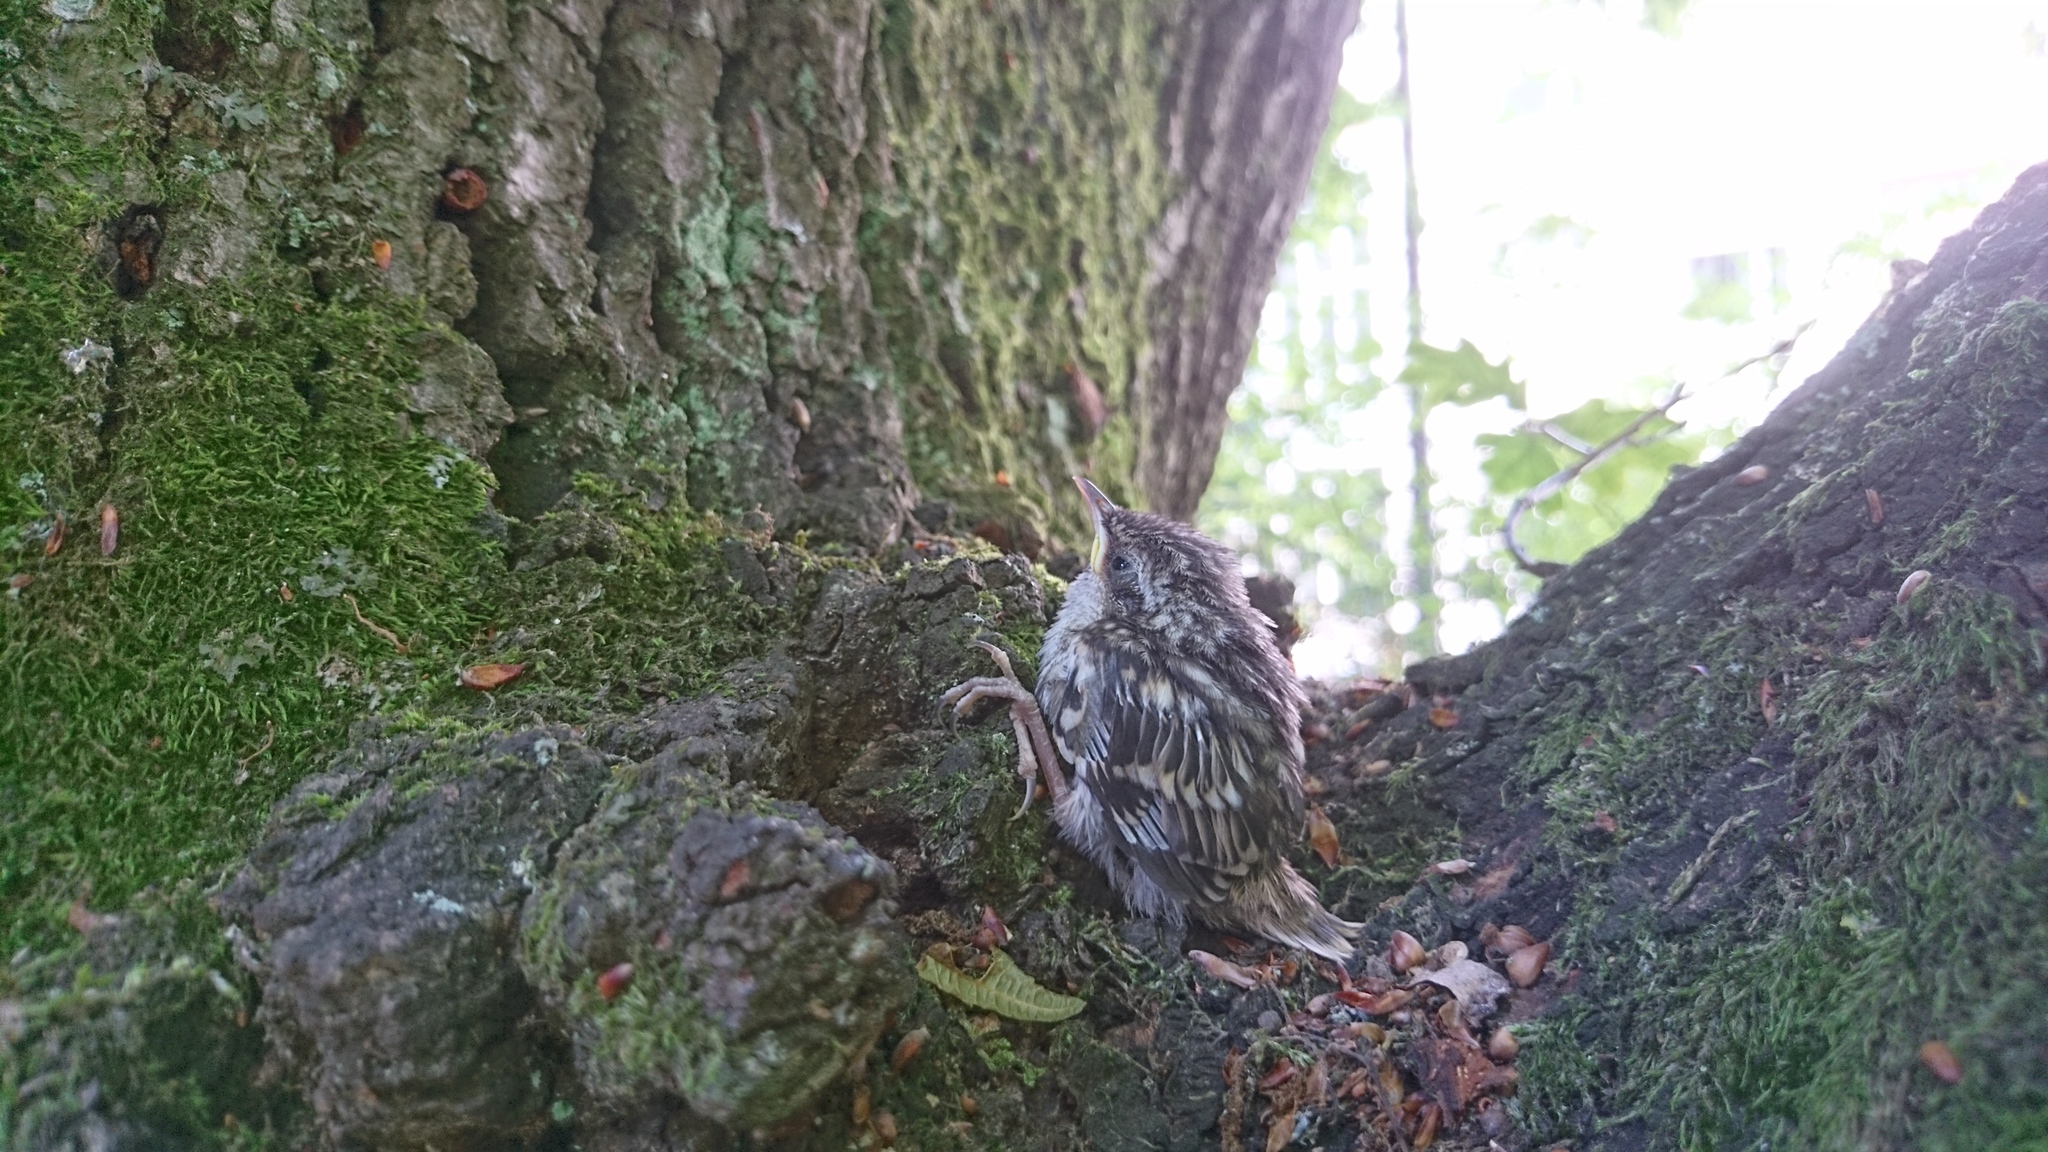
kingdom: Animalia
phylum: Chordata
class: Aves
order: Passeriformes
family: Certhiidae
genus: Certhia
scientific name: Certhia brachydactyla
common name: Short-toed treecreeper
